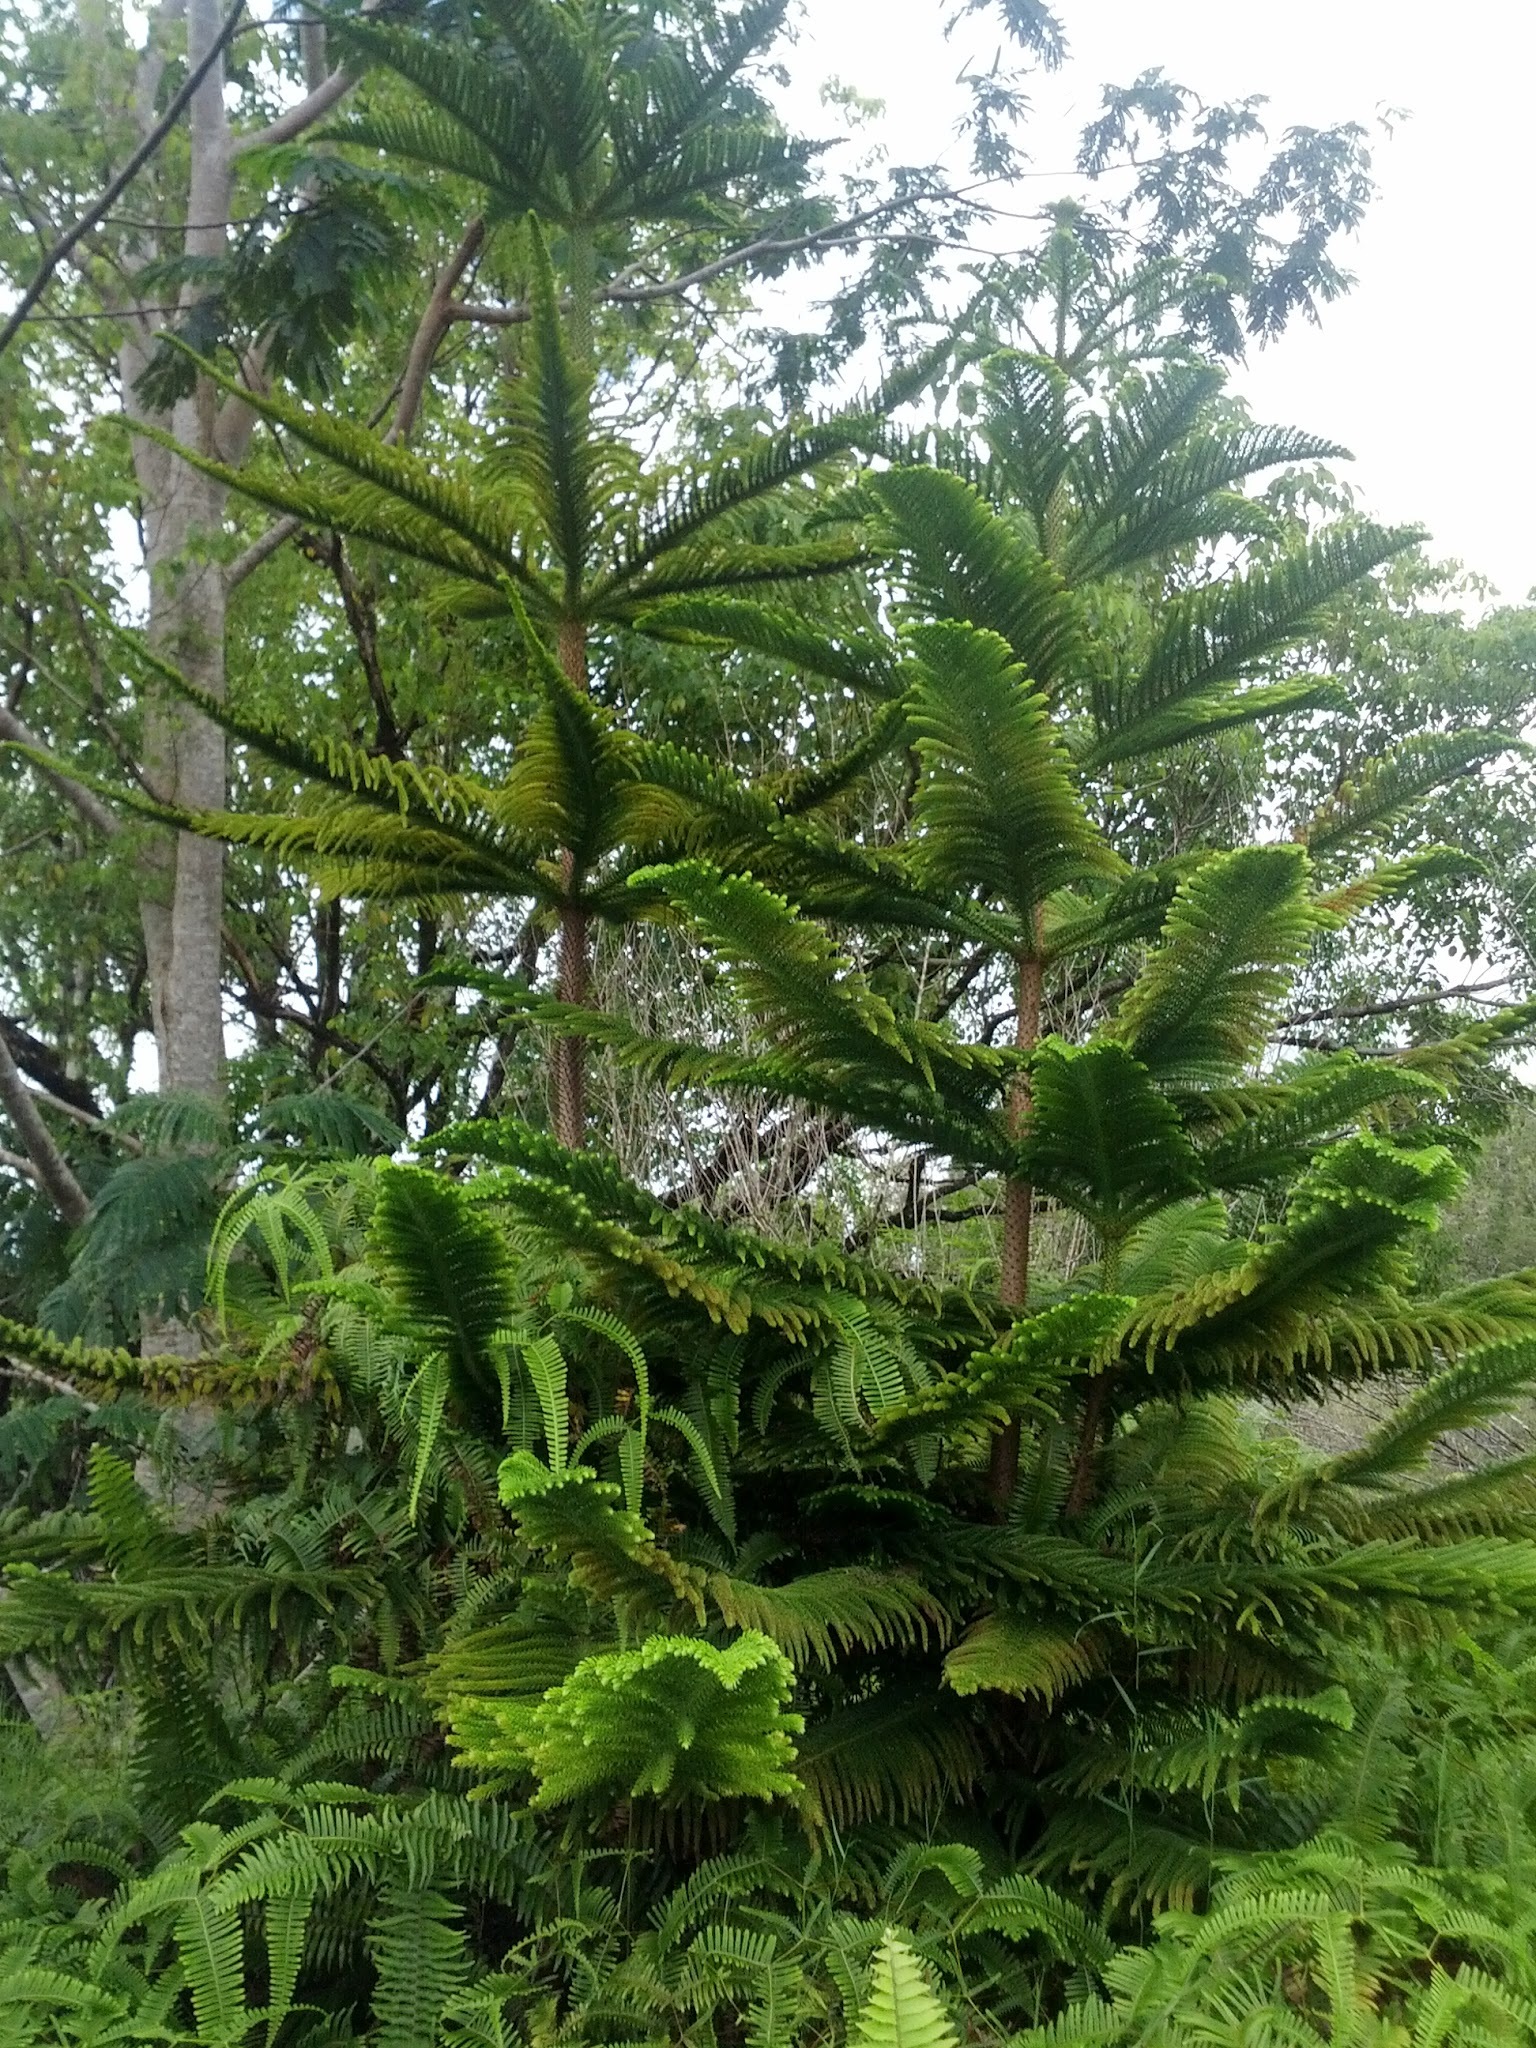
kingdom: Plantae
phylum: Tracheophyta
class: Pinopsida
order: Pinales
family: Araucariaceae
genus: Araucaria
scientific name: Araucaria columnaris
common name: Coral reef araucaria
